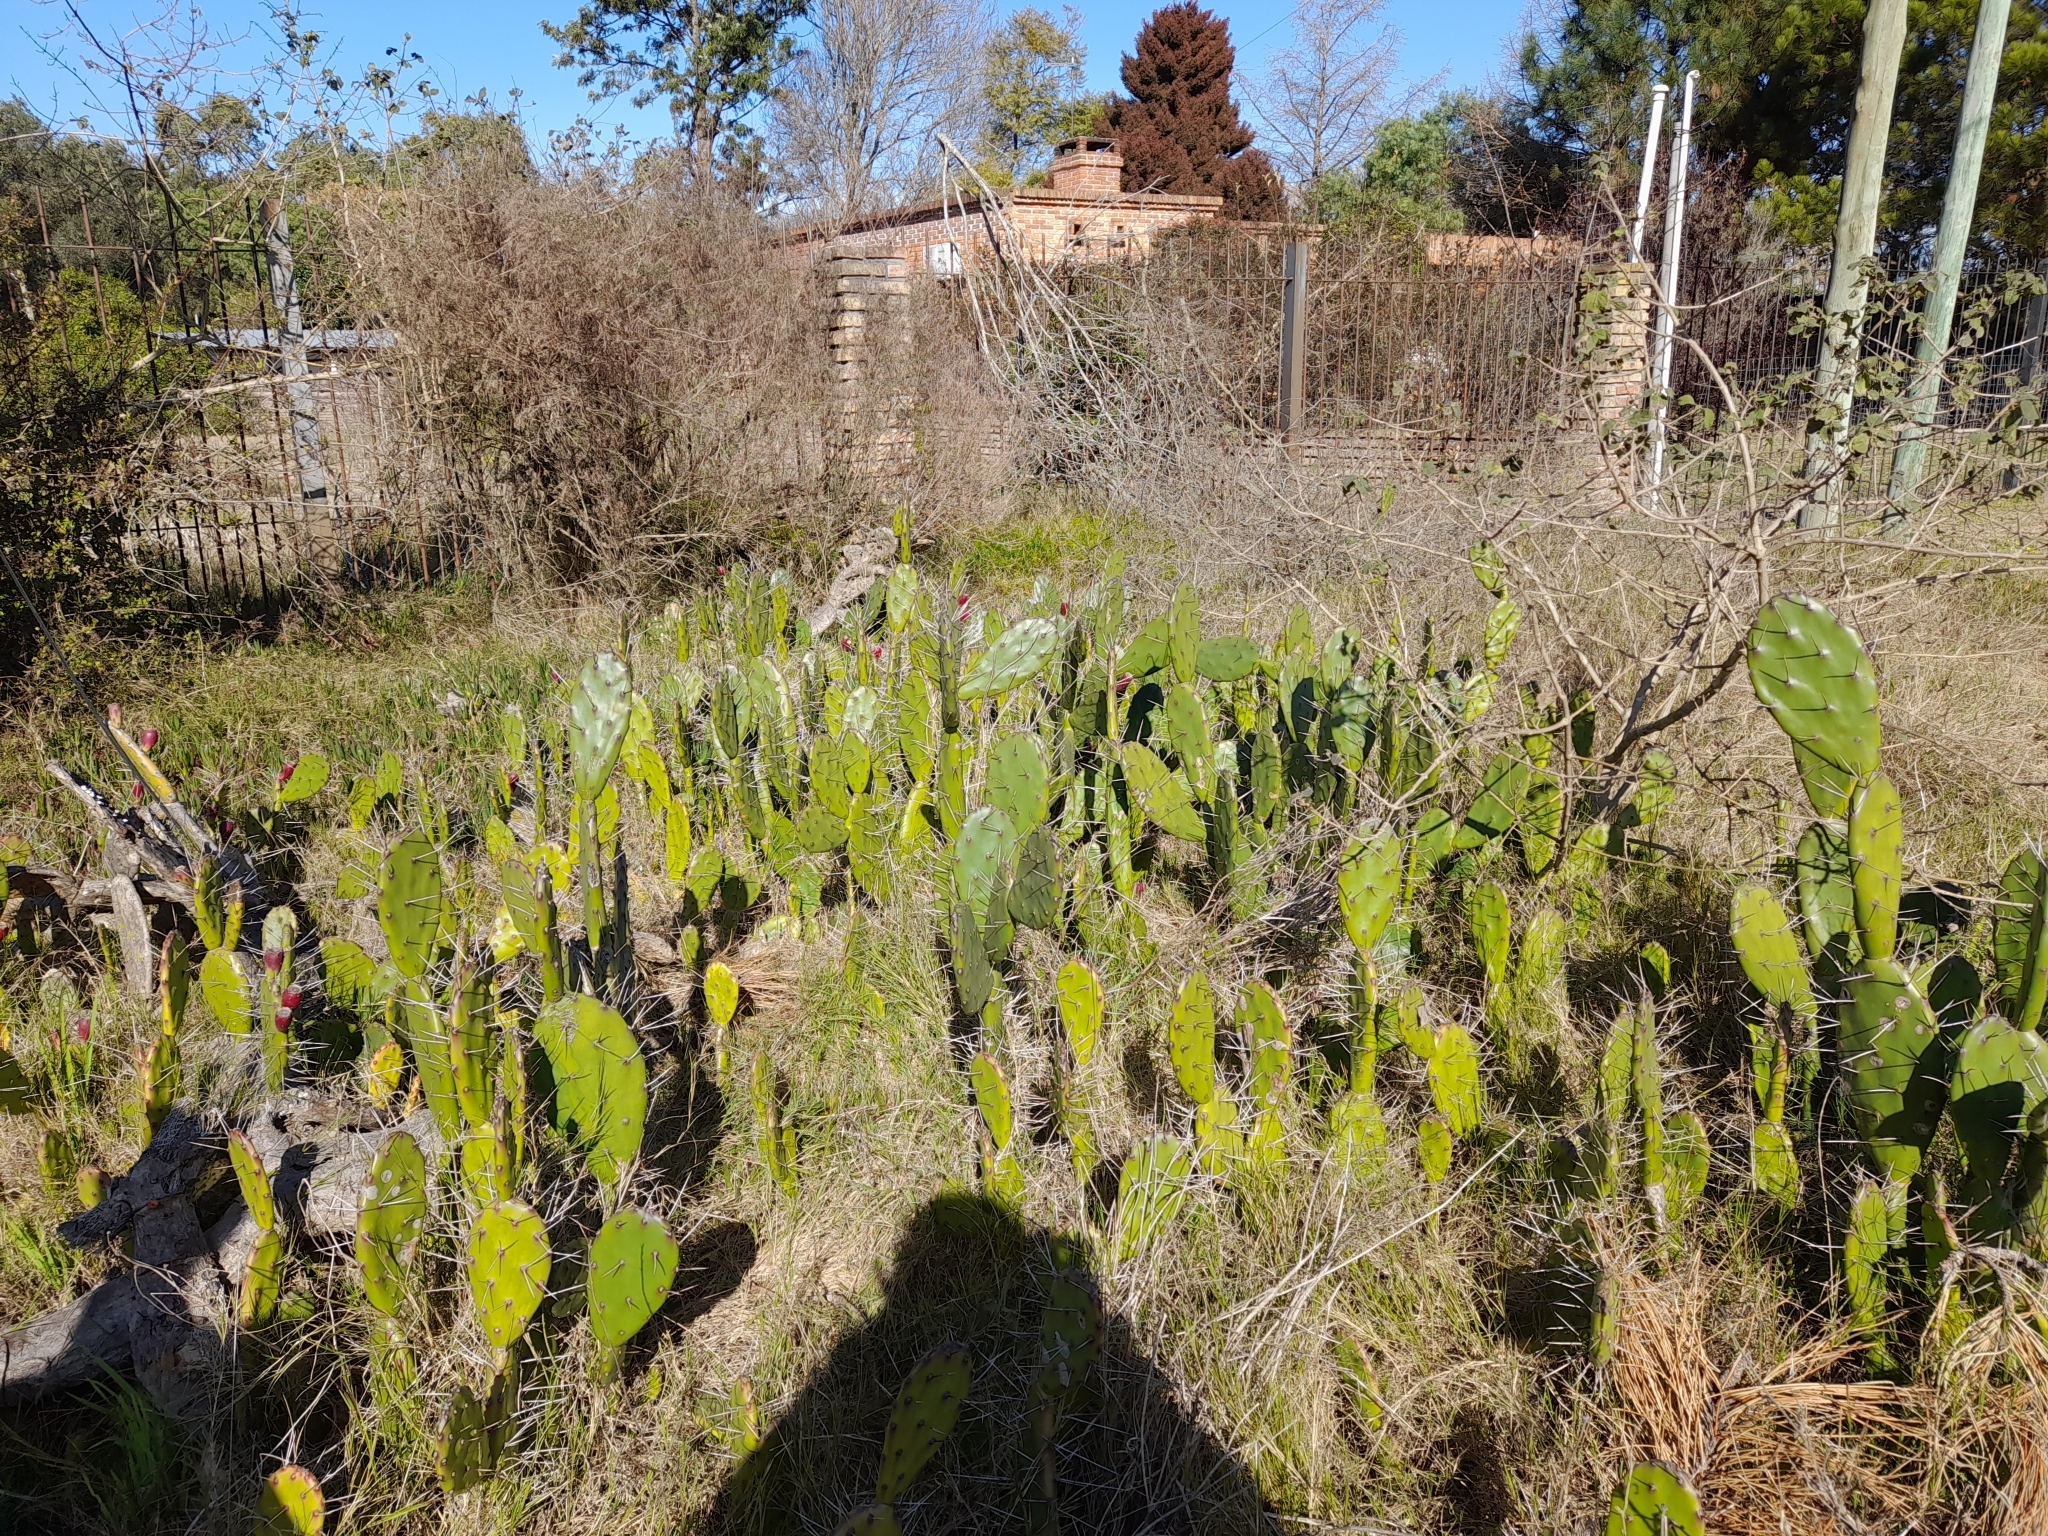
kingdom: Plantae
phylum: Tracheophyta
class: Magnoliopsida
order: Caryophyllales
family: Cactaceae
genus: Opuntia
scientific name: Opuntia elata
